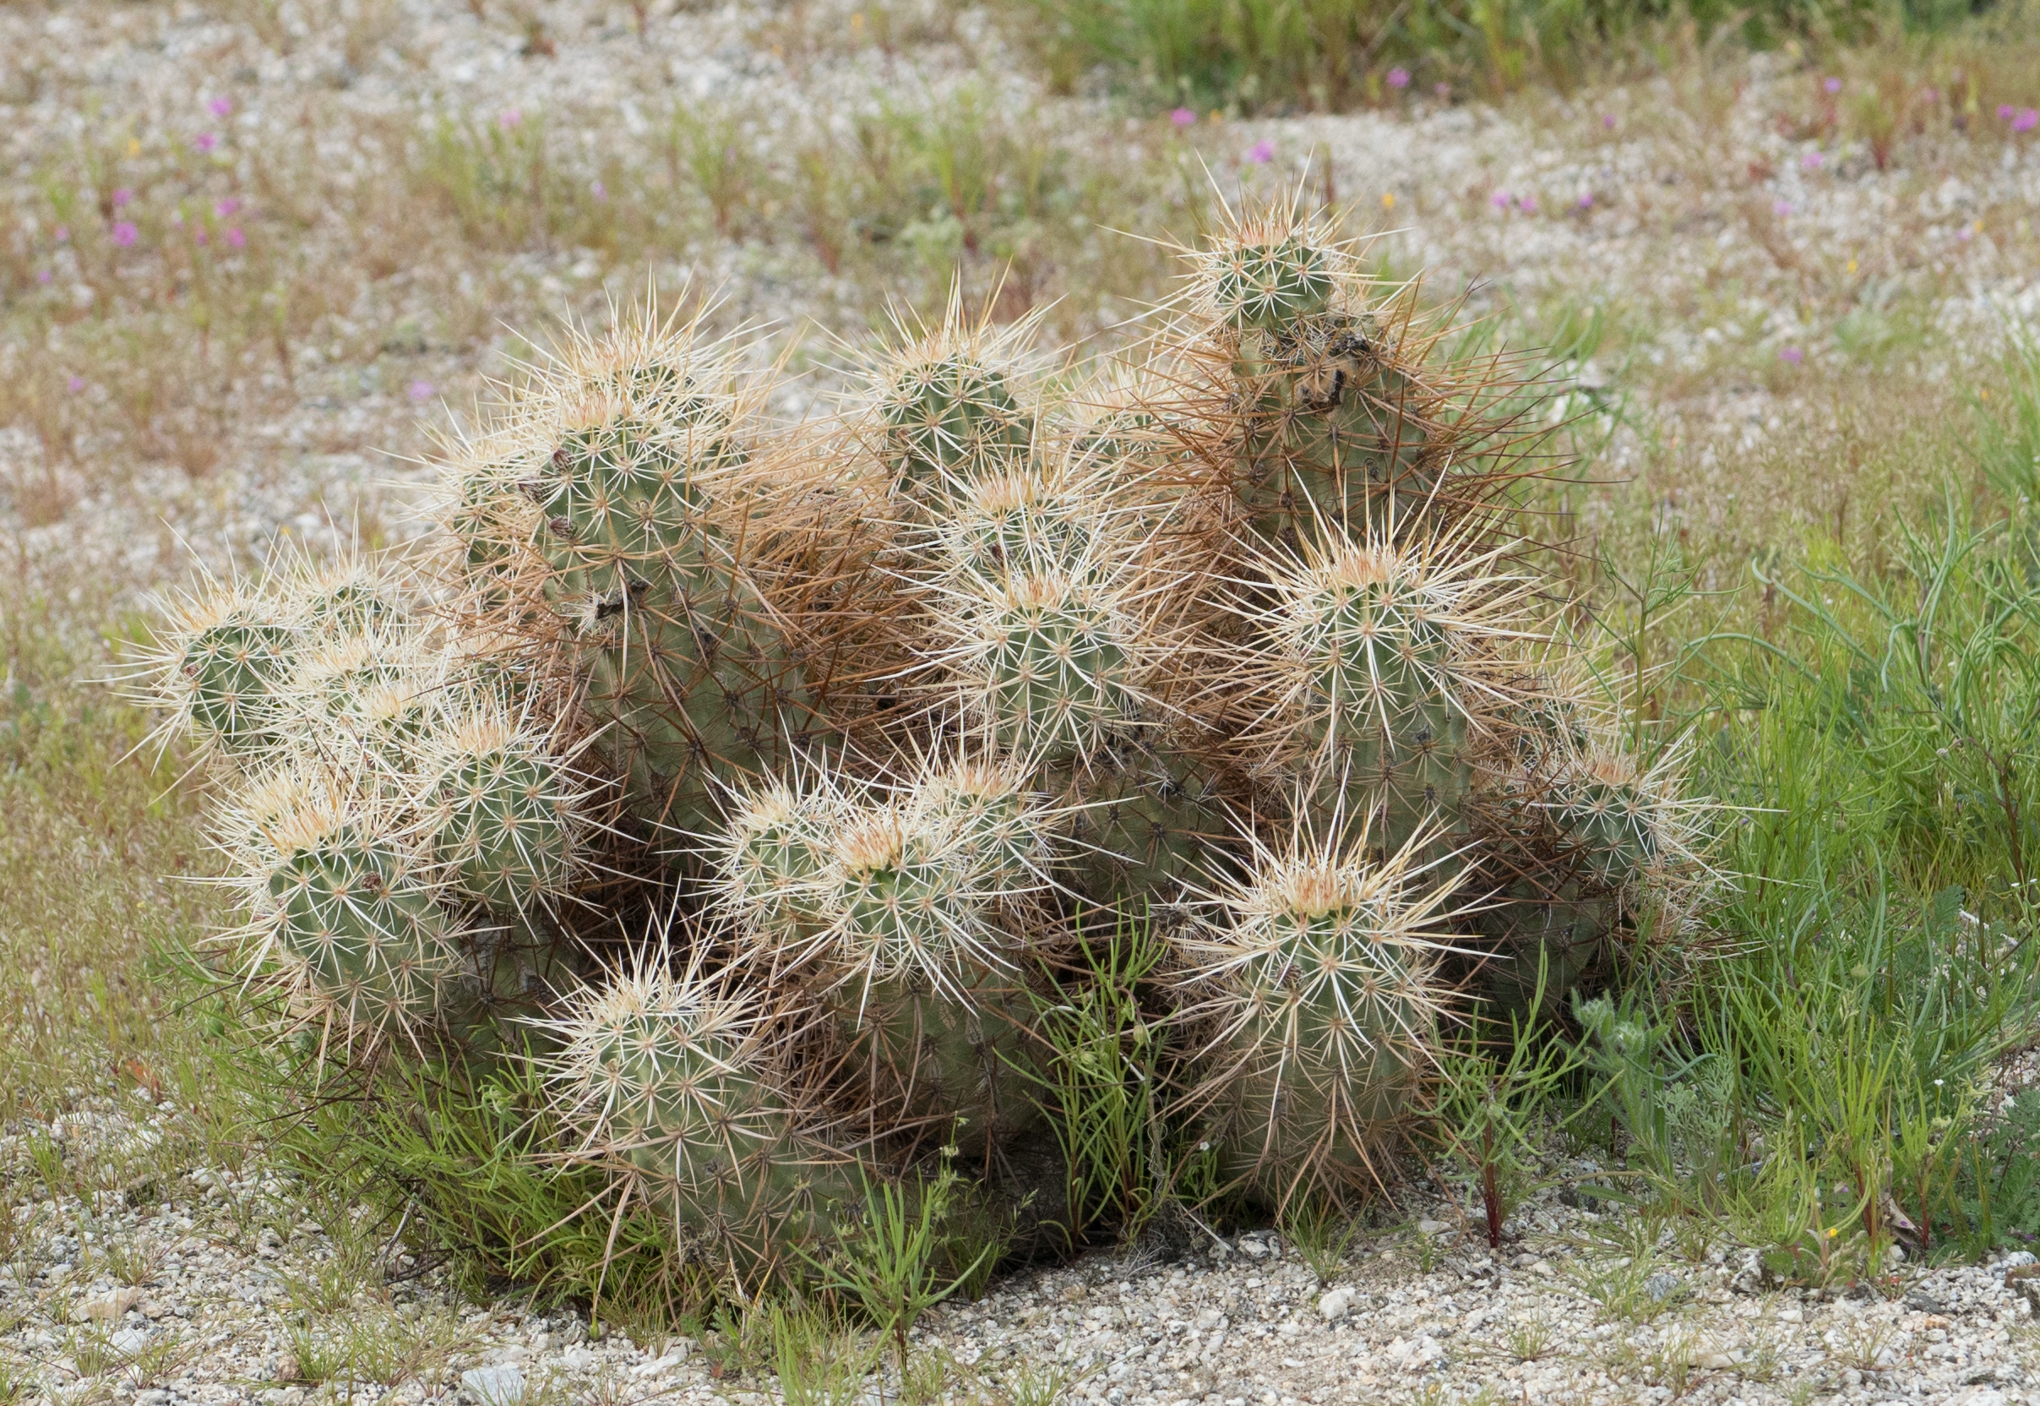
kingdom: Plantae
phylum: Tracheophyta
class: Magnoliopsida
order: Caryophyllales
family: Cactaceae
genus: Echinocereus
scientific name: Echinocereus engelmannii
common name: Engelmann's hedgehog cactus
